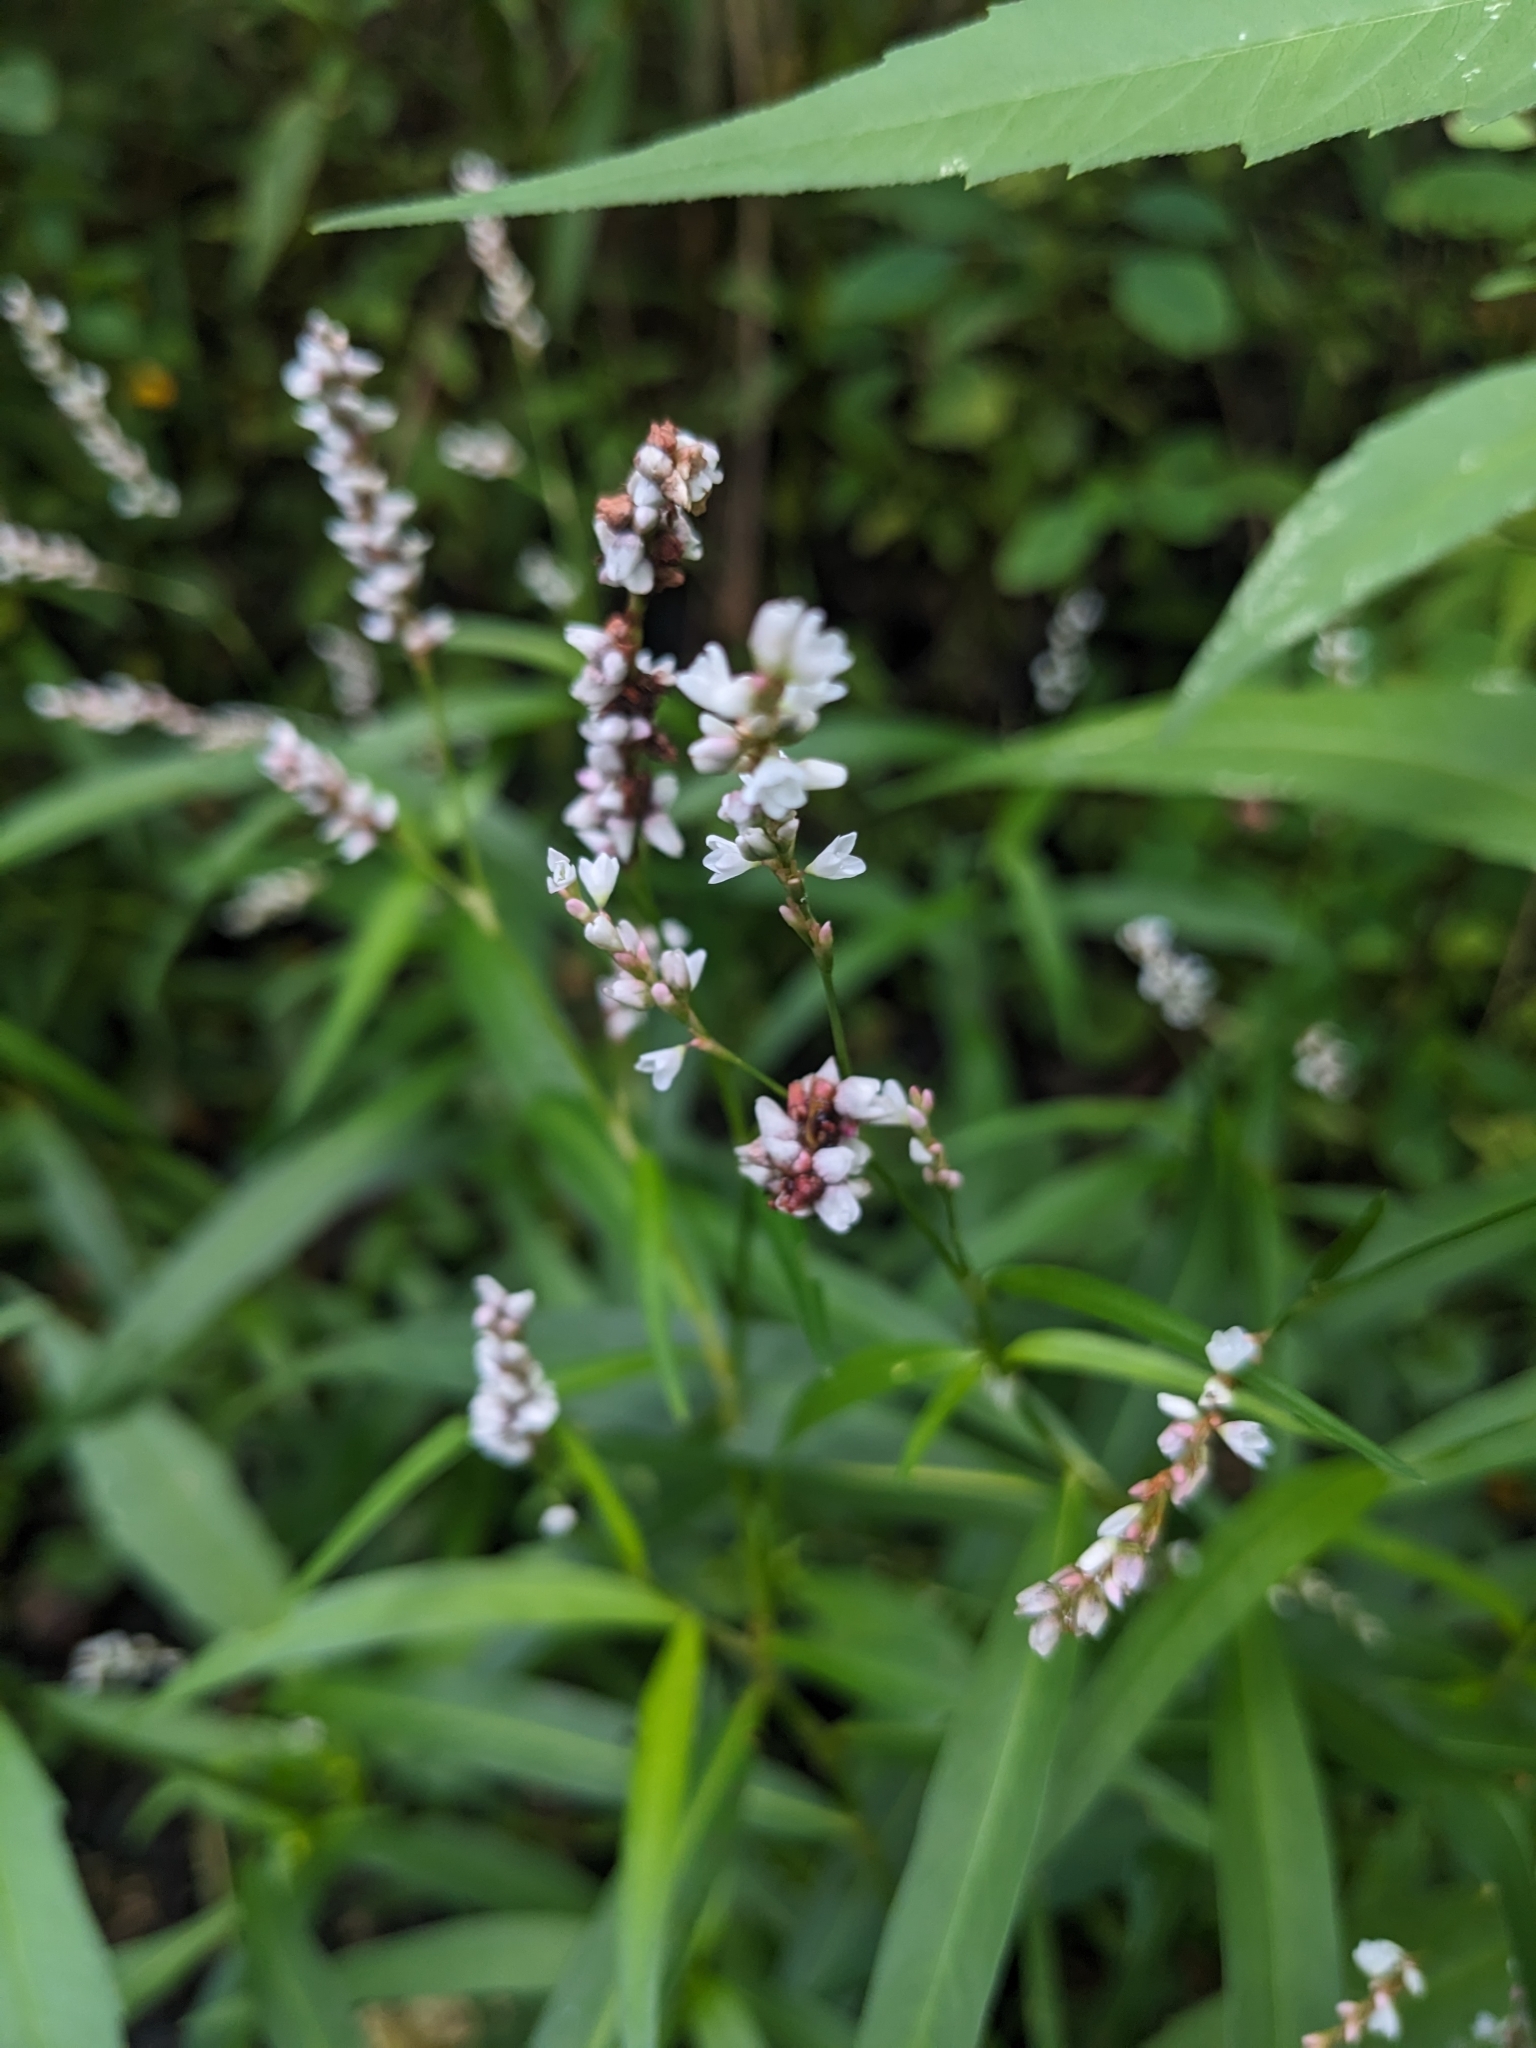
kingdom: Plantae
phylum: Tracheophyta
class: Magnoliopsida
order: Caryophyllales
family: Polygonaceae
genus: Persicaria
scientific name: Persicaria hydropiperoides
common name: Swamp smartweed
